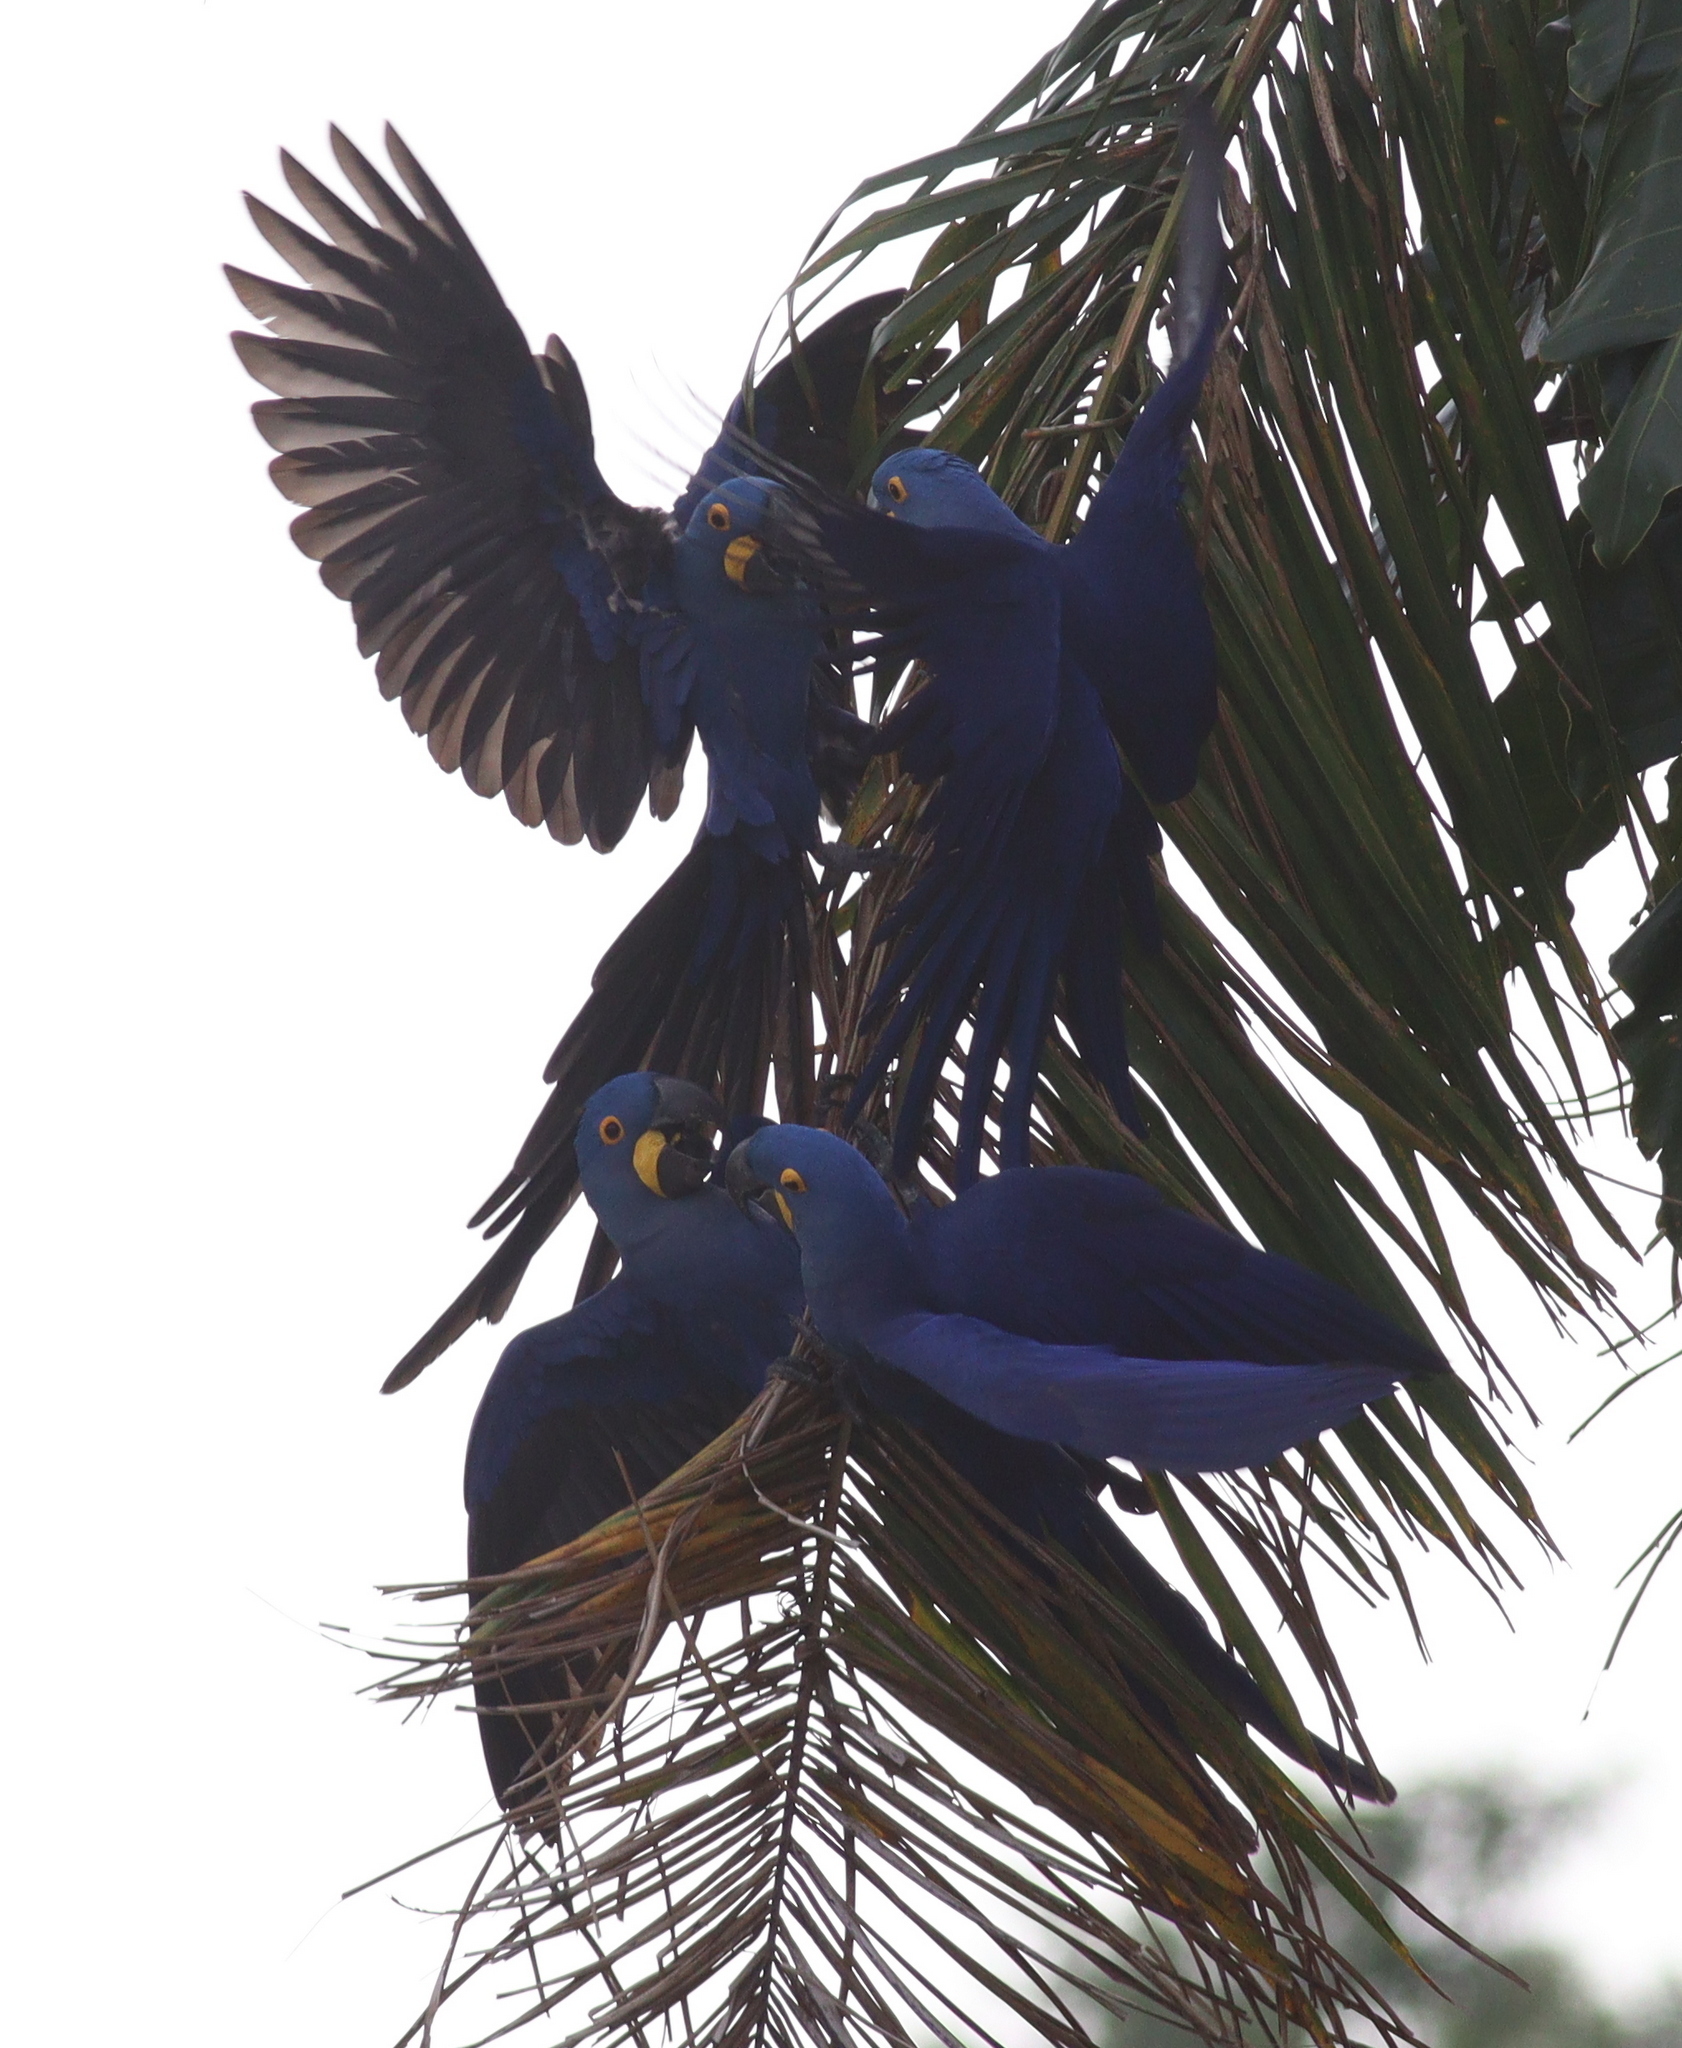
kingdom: Animalia
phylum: Chordata
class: Aves
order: Psittaciformes
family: Psittacidae
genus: Anodorhynchus
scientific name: Anodorhynchus hyacinthinus
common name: Hyacinth macaw
